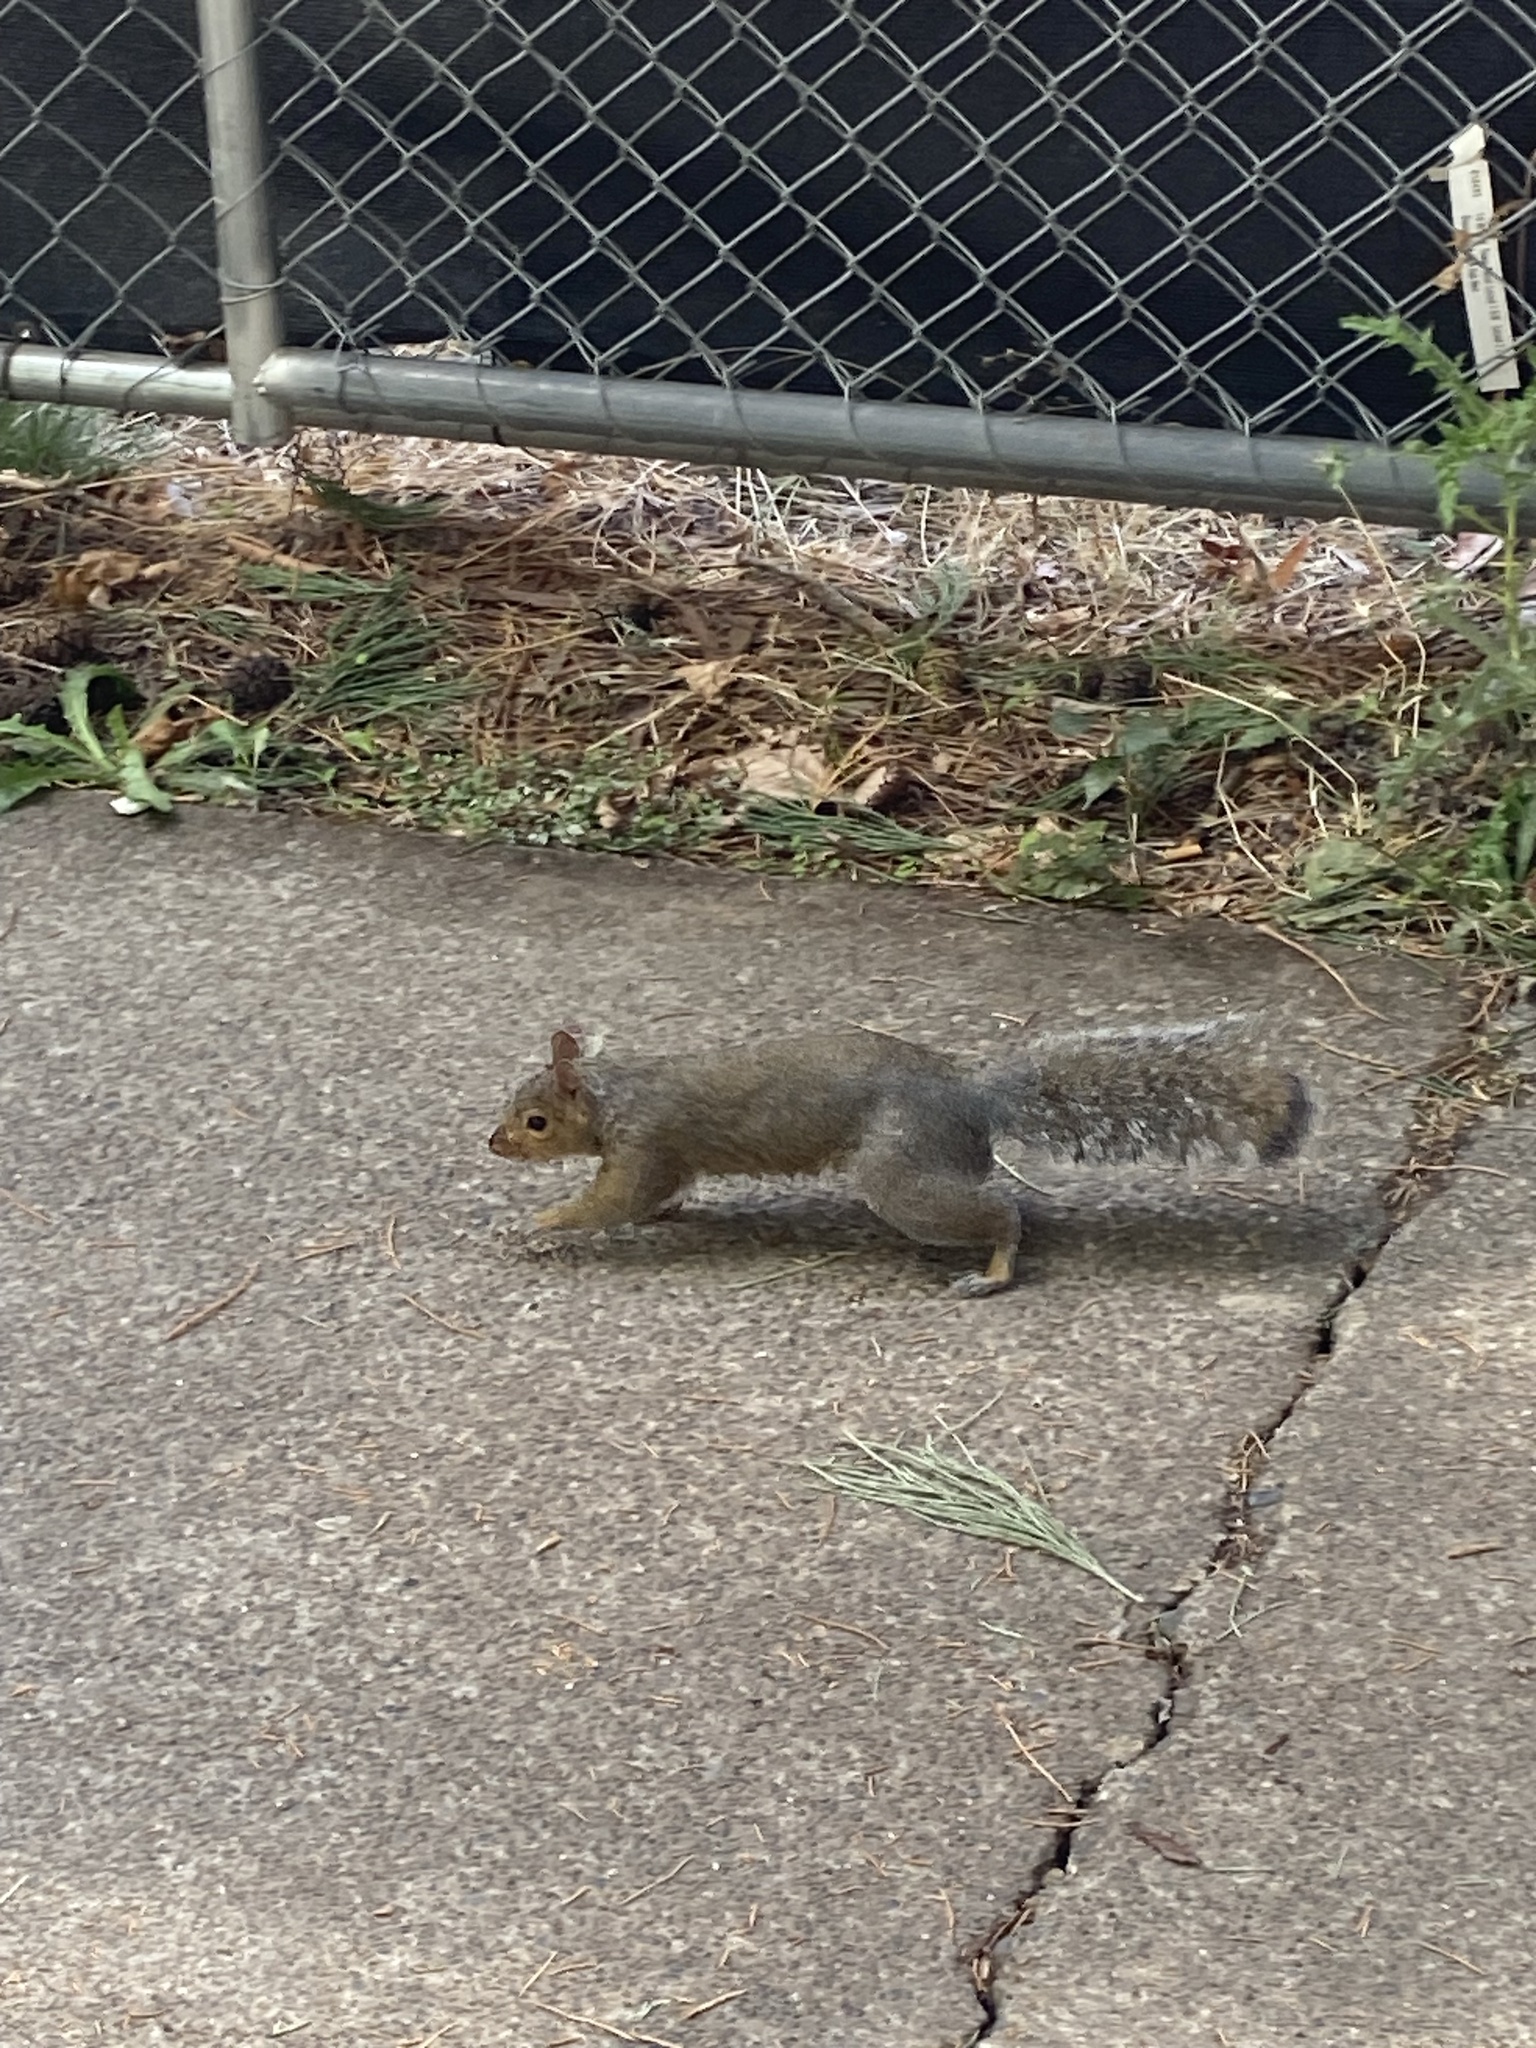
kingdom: Animalia
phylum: Chordata
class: Mammalia
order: Rodentia
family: Sciuridae
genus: Sciurus
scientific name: Sciurus carolinensis
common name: Eastern gray squirrel
